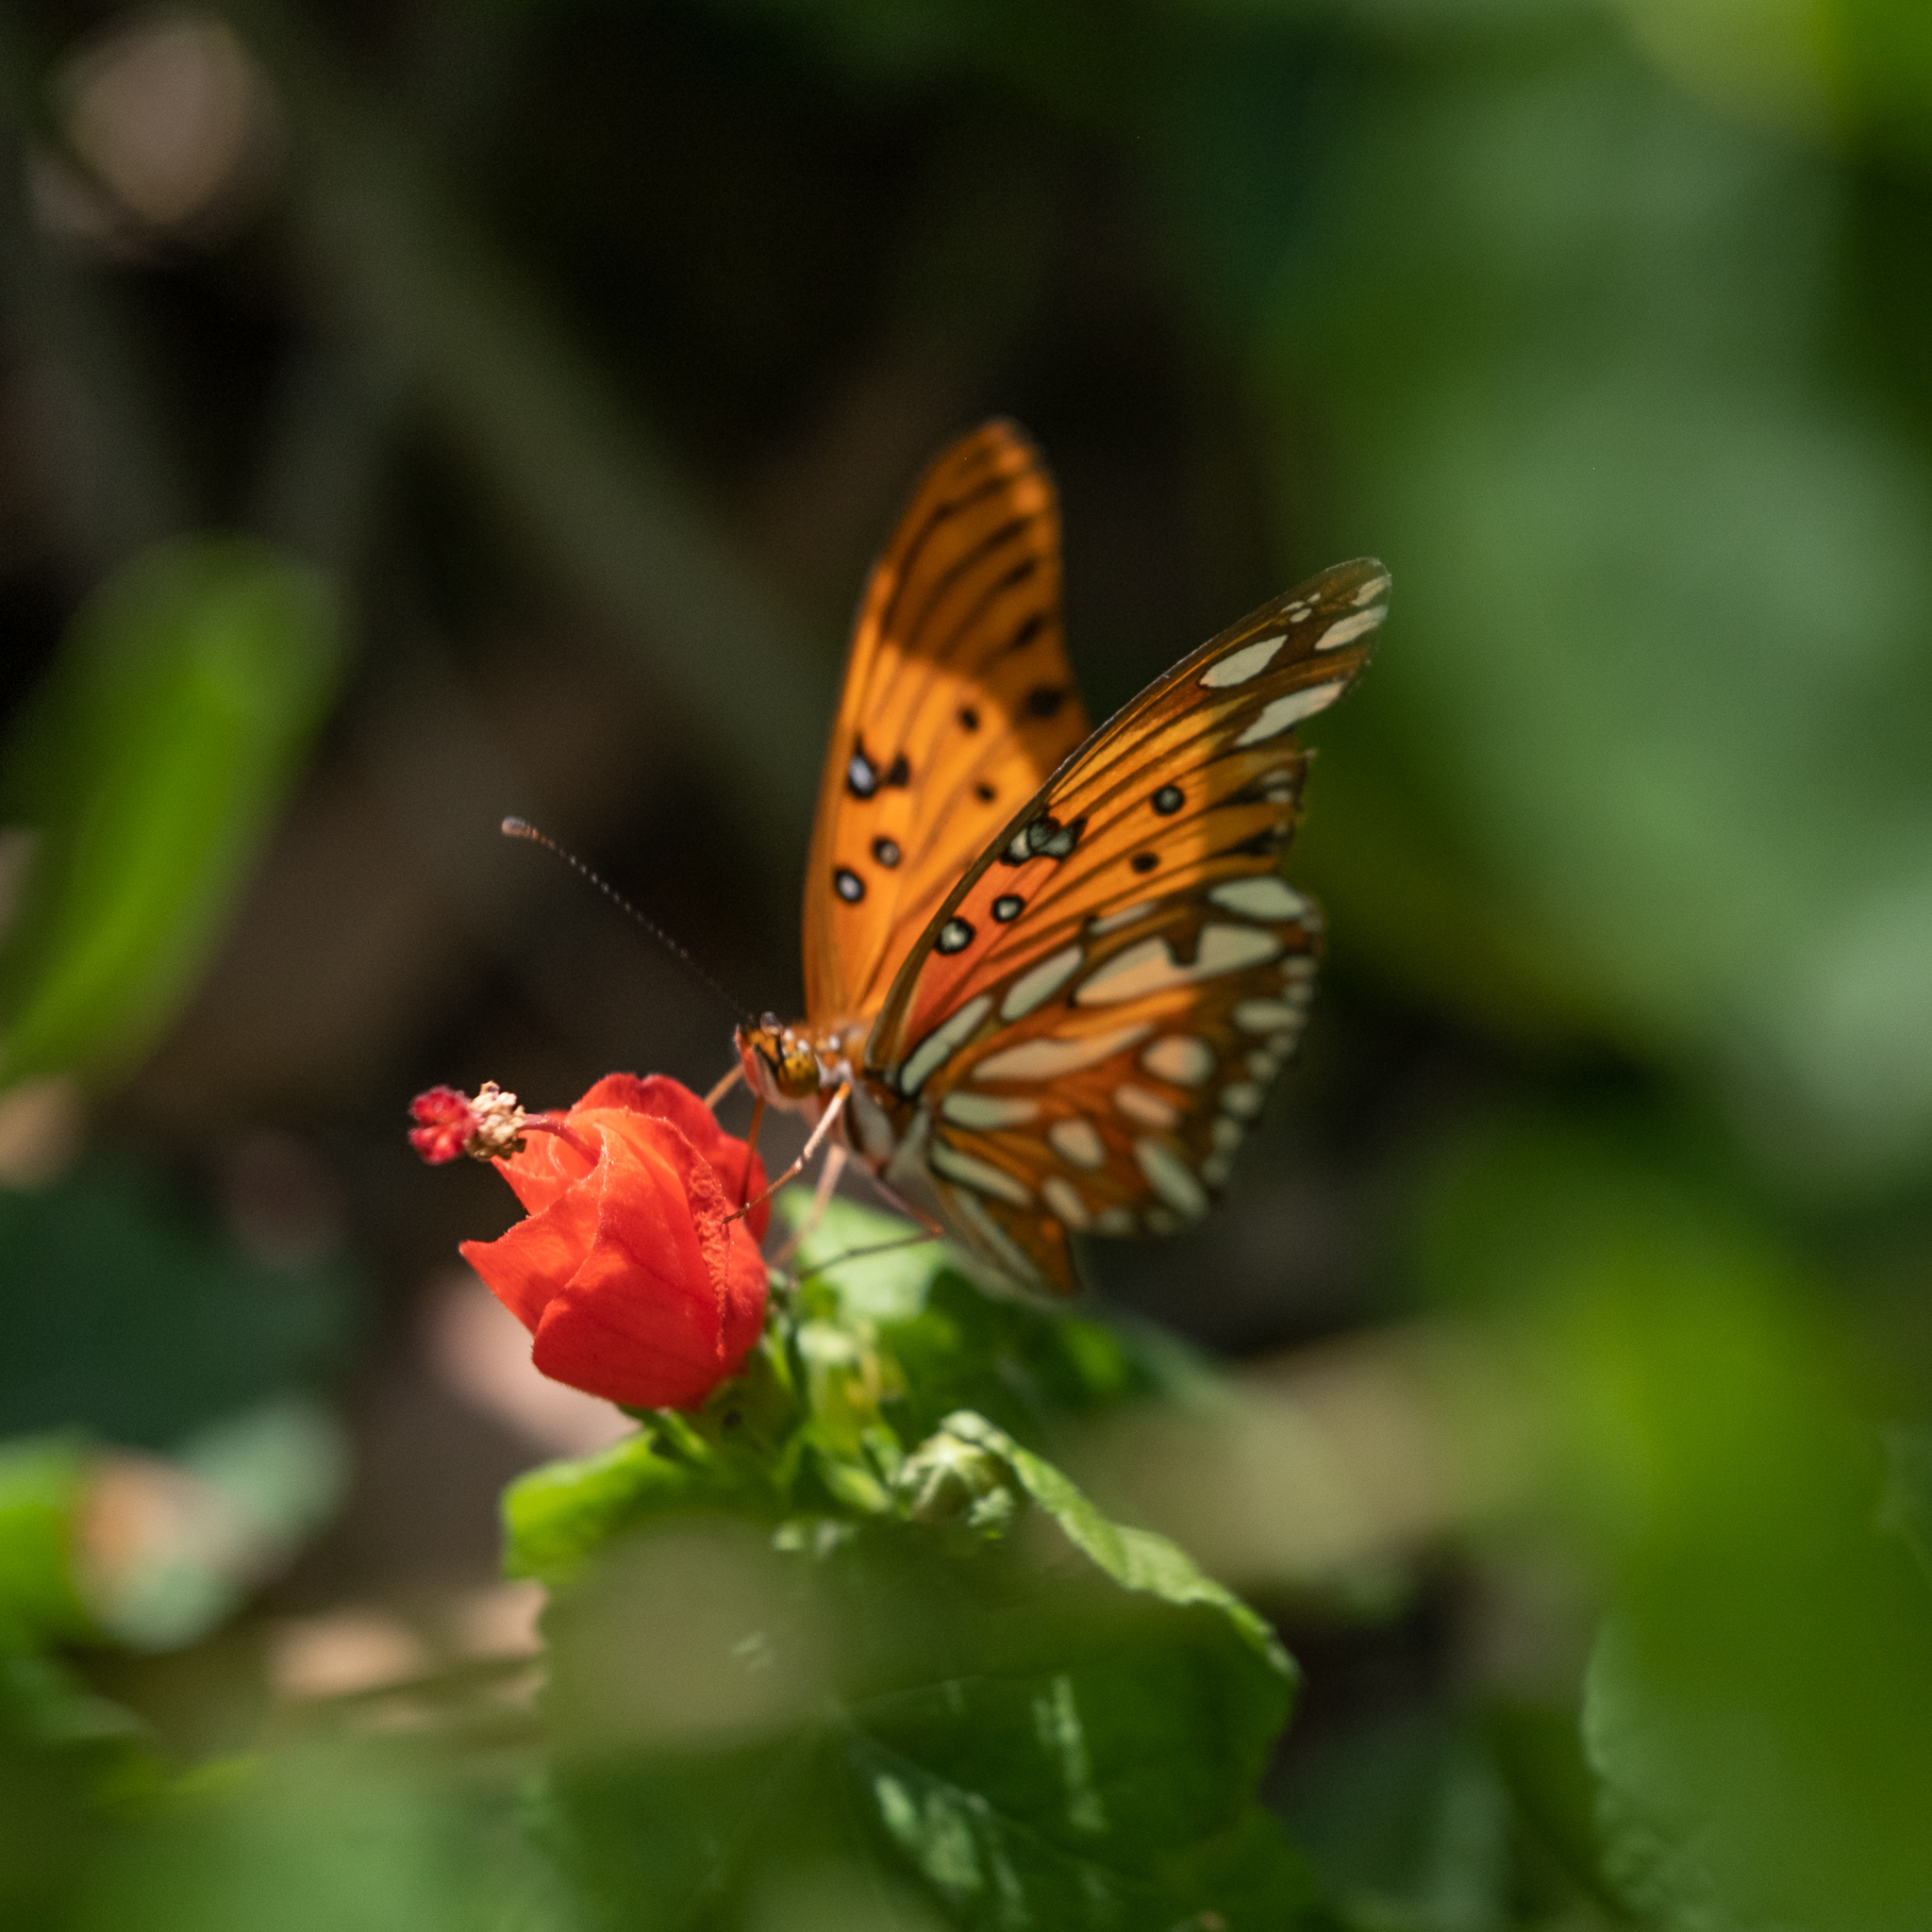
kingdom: Animalia
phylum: Arthropoda
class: Insecta
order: Lepidoptera
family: Nymphalidae
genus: Dione
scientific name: Dione vanillae
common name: Gulf fritillary
